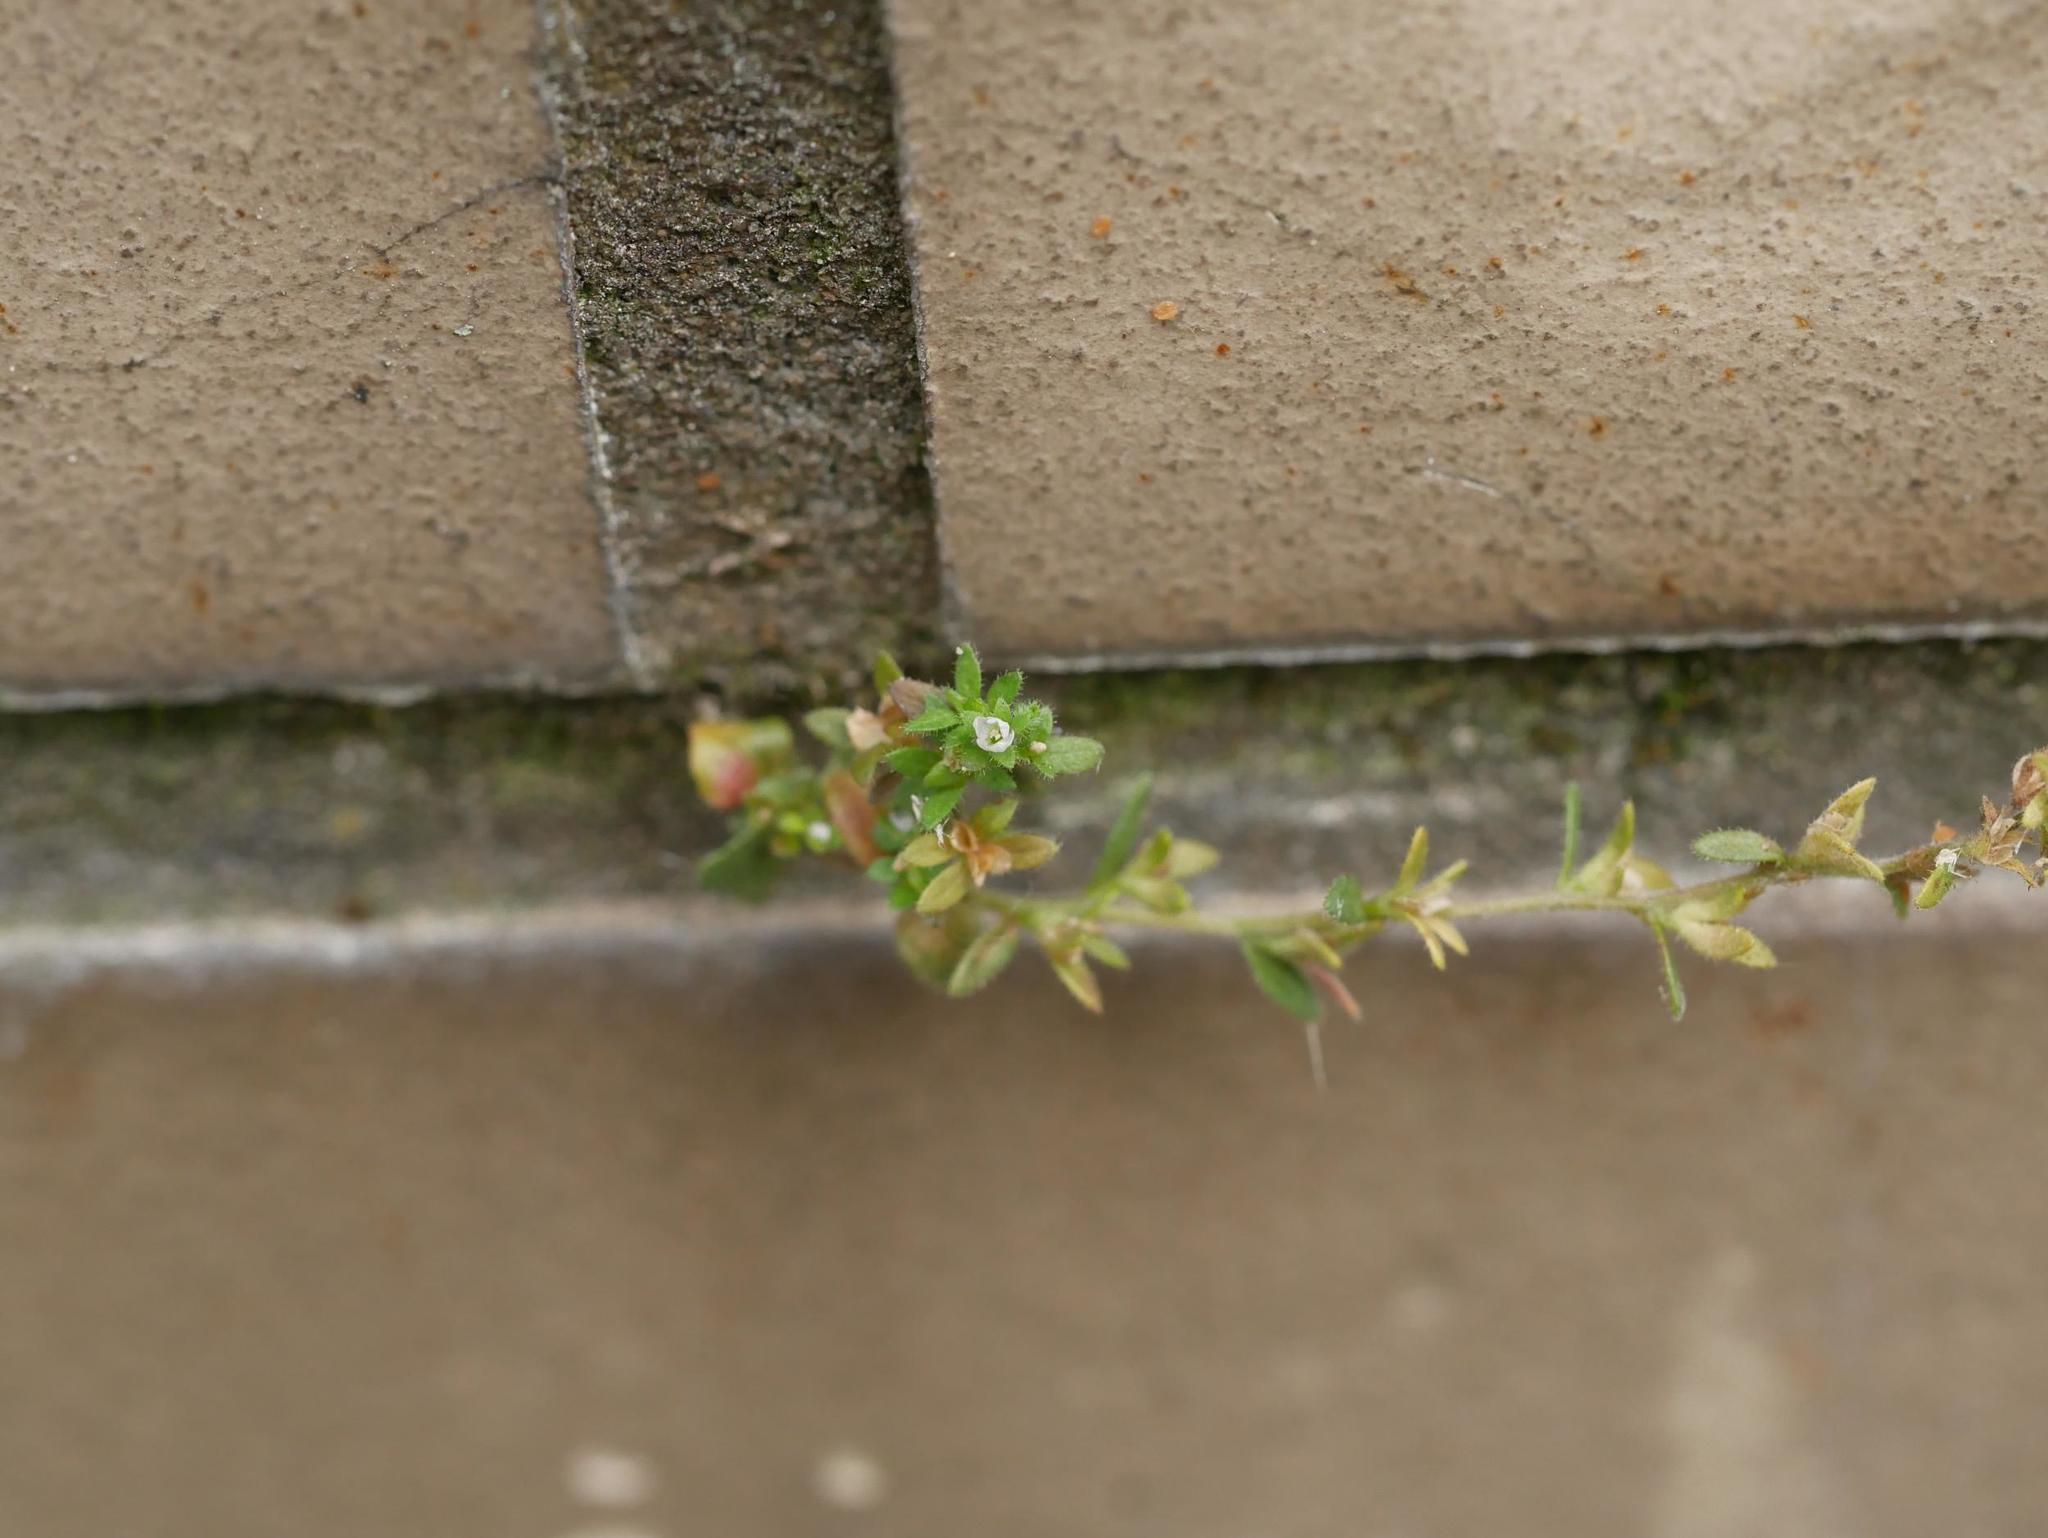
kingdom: Plantae
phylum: Tracheophyta
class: Magnoliopsida
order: Lamiales
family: Plantaginaceae
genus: Veronica
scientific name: Veronica arvensis
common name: Corn speedwell
